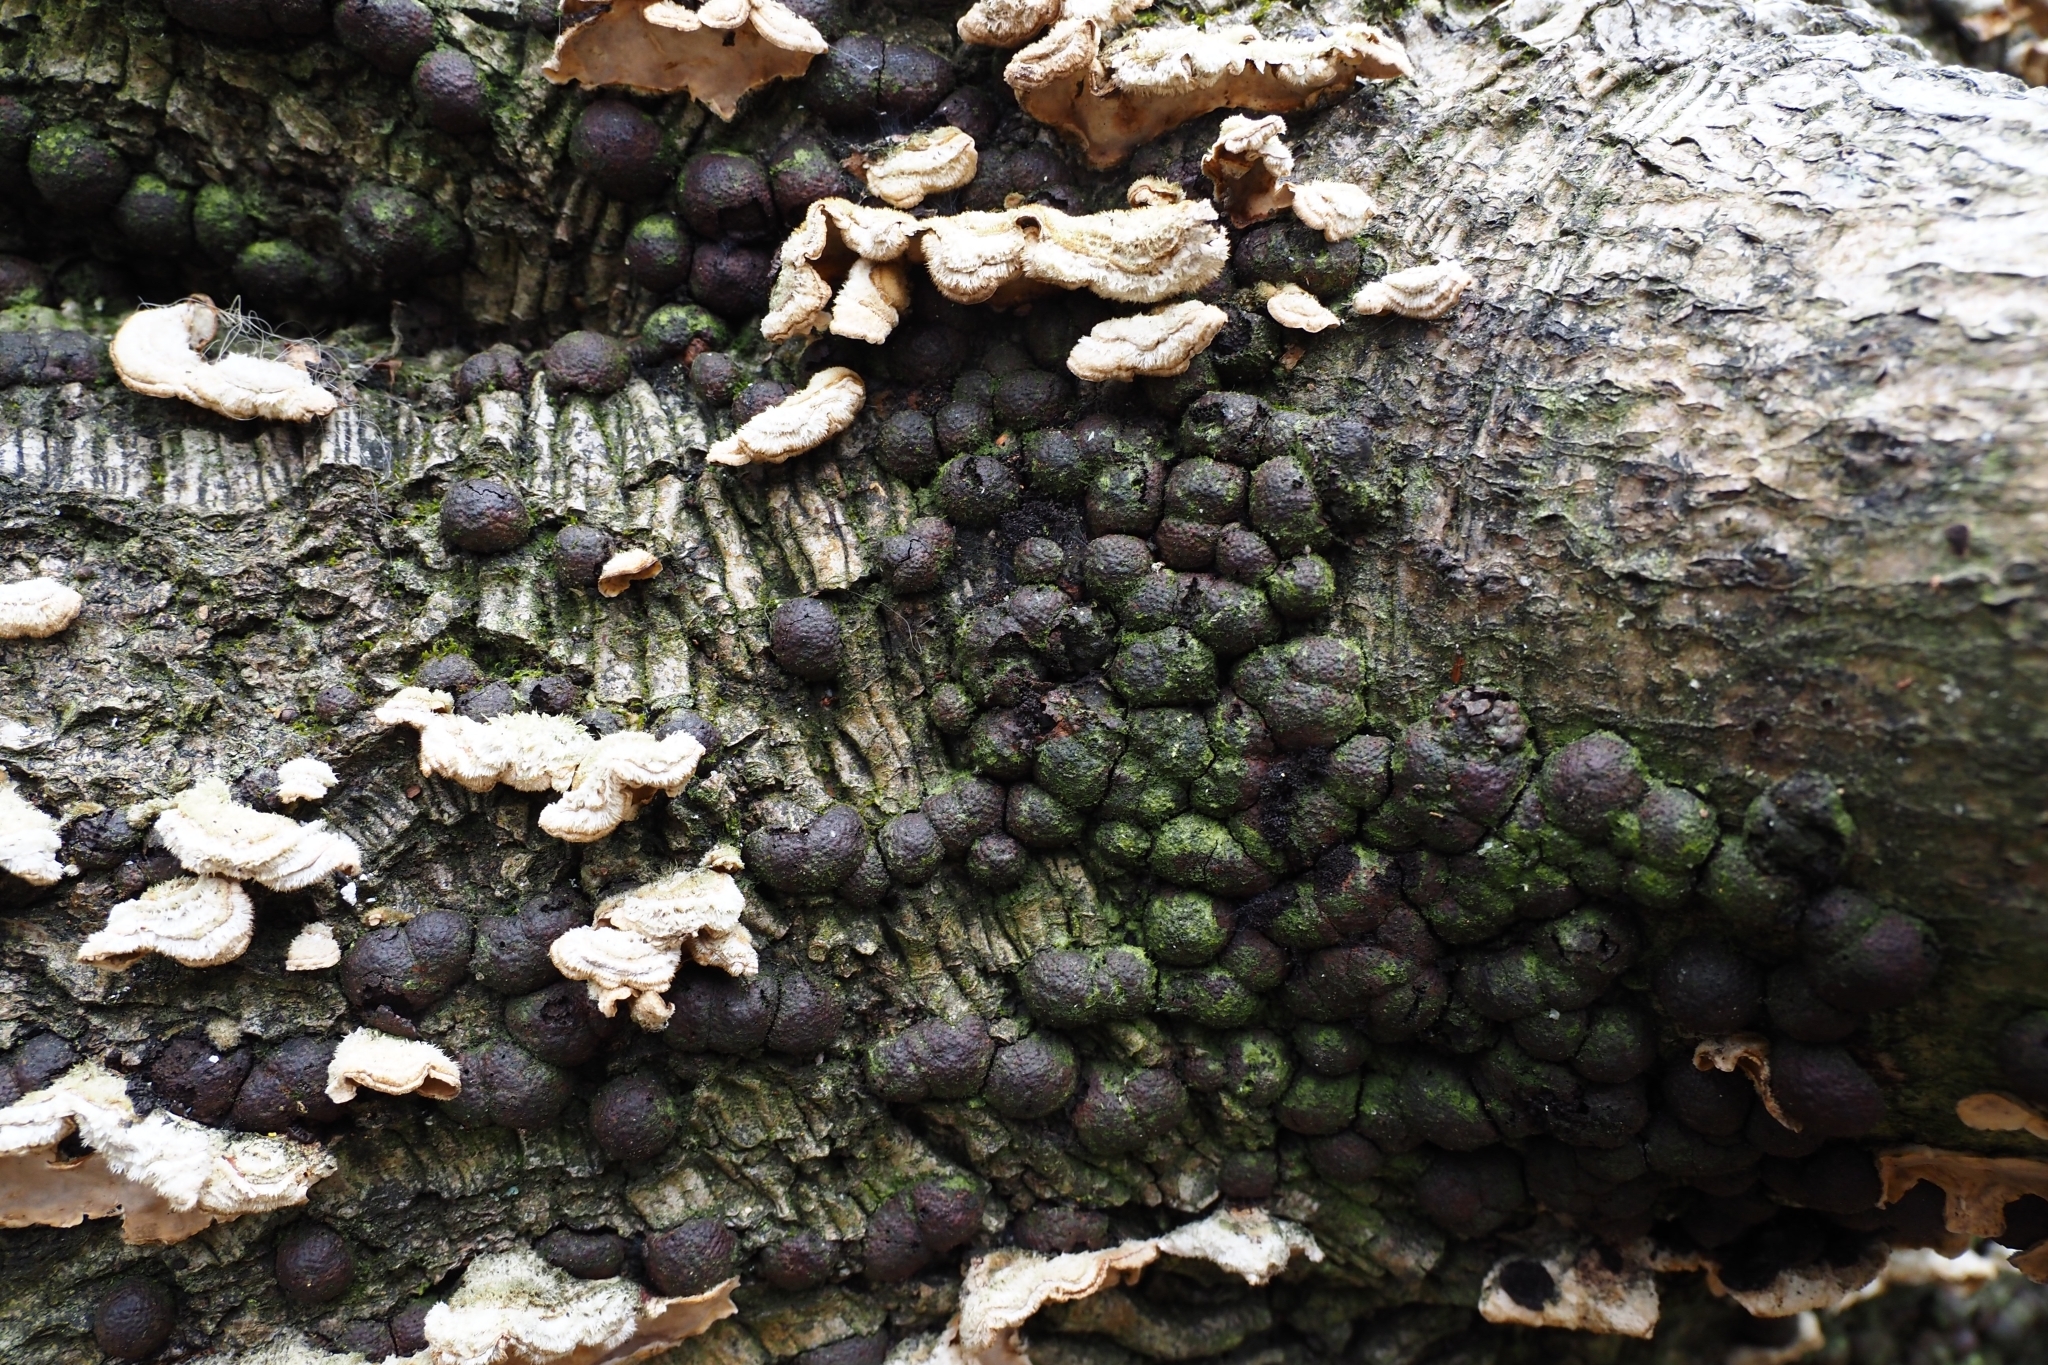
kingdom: Fungi
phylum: Ascomycota
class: Sordariomycetes
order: Xylariales
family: Hypoxylaceae
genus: Hypoxylon
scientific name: Hypoxylon fragiforme
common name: Beech woodwart
